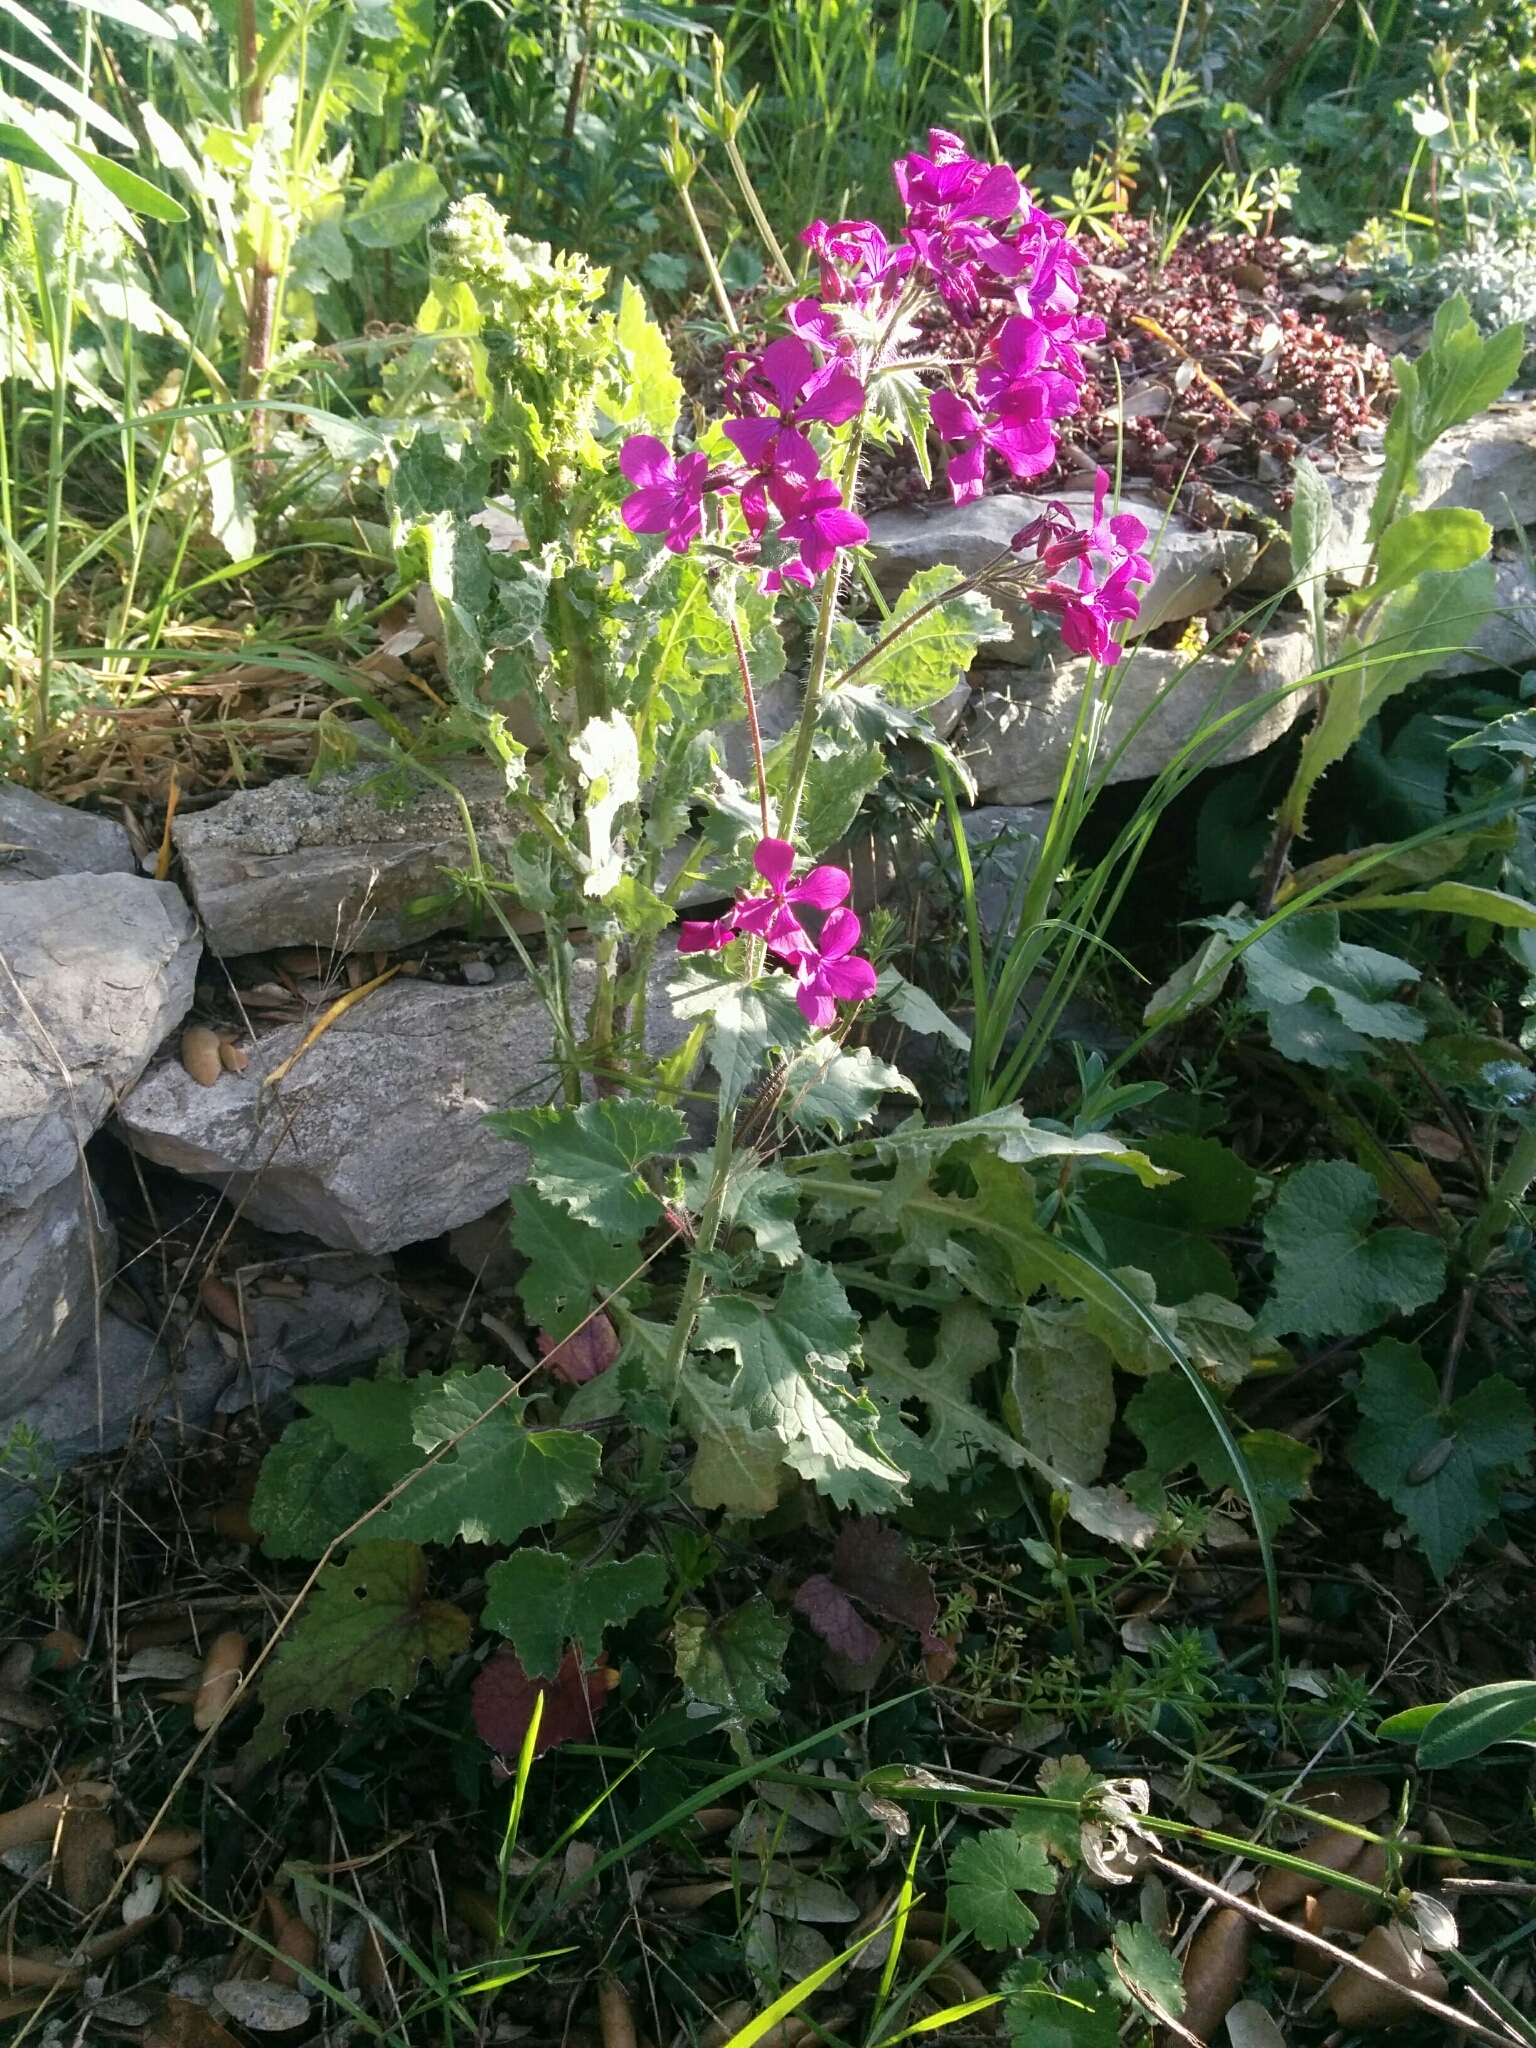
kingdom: Plantae
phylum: Tracheophyta
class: Magnoliopsida
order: Brassicales
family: Brassicaceae
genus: Lunaria
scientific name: Lunaria annua
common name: Honesty
